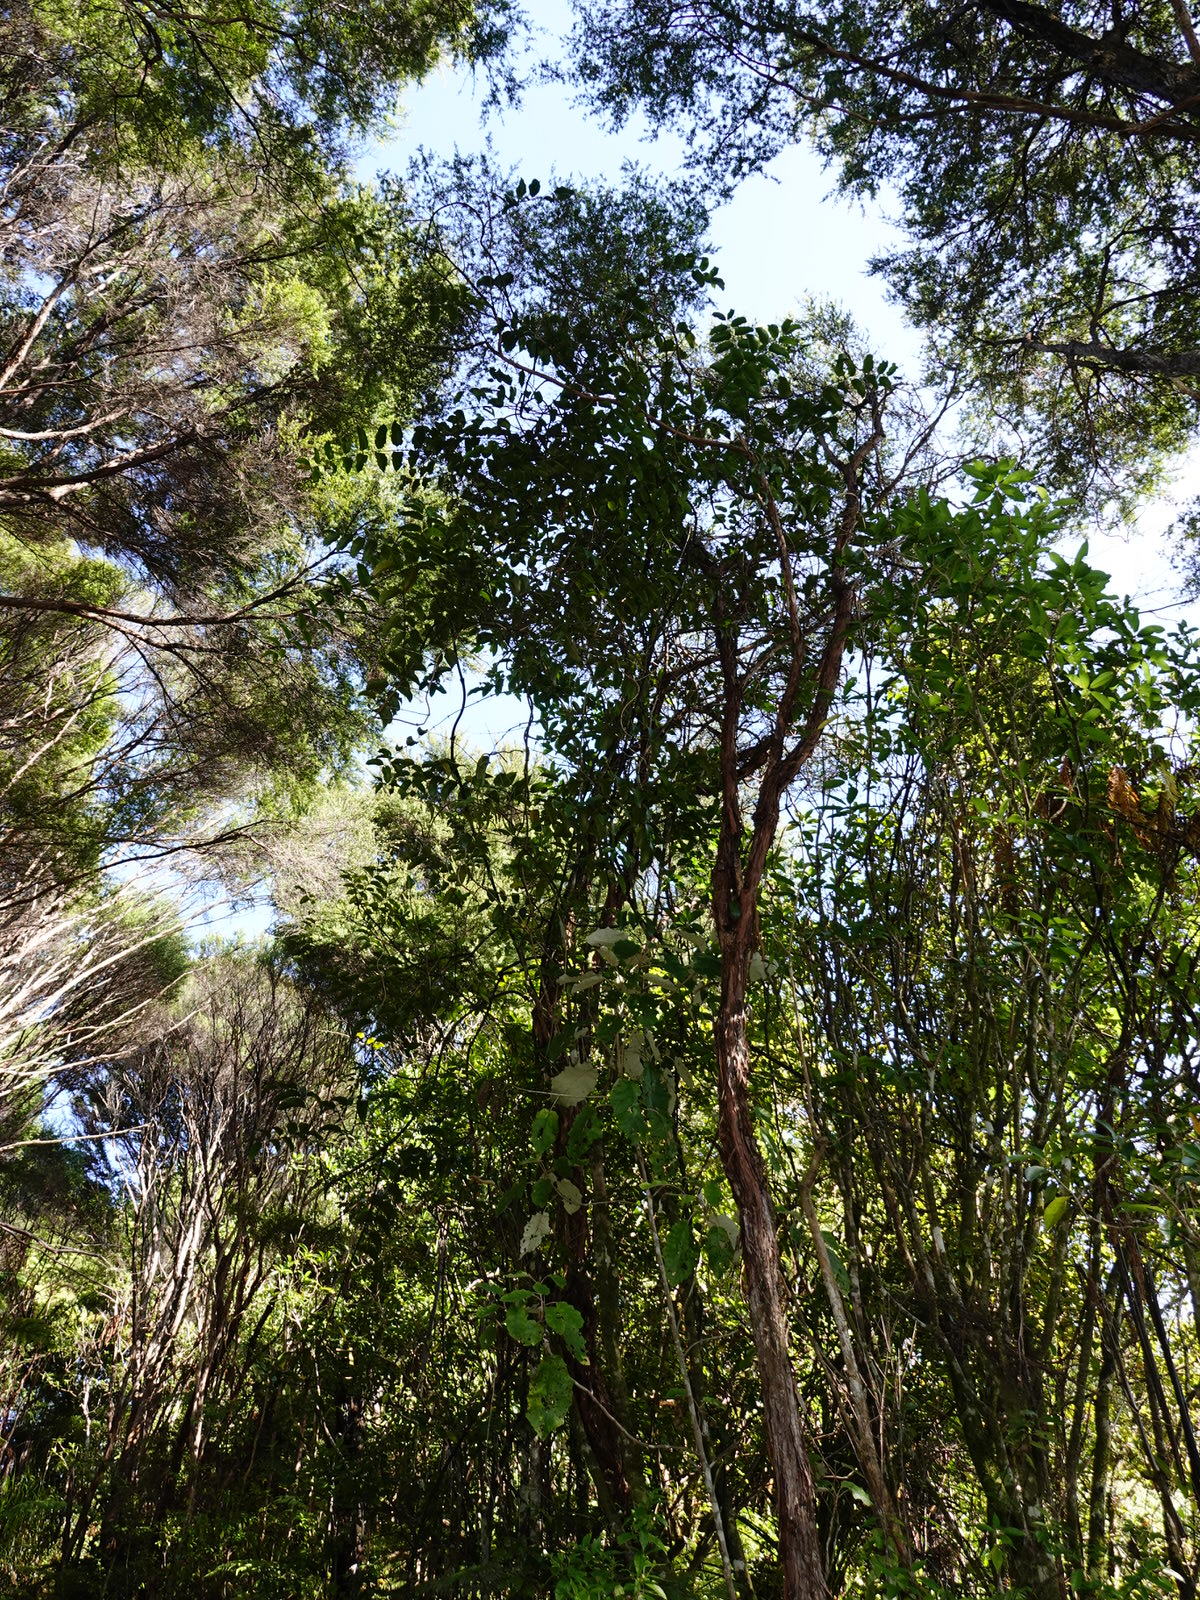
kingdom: Plantae
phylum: Tracheophyta
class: Liliopsida
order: Liliales
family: Ripogonaceae
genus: Ripogonum
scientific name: Ripogonum scandens
